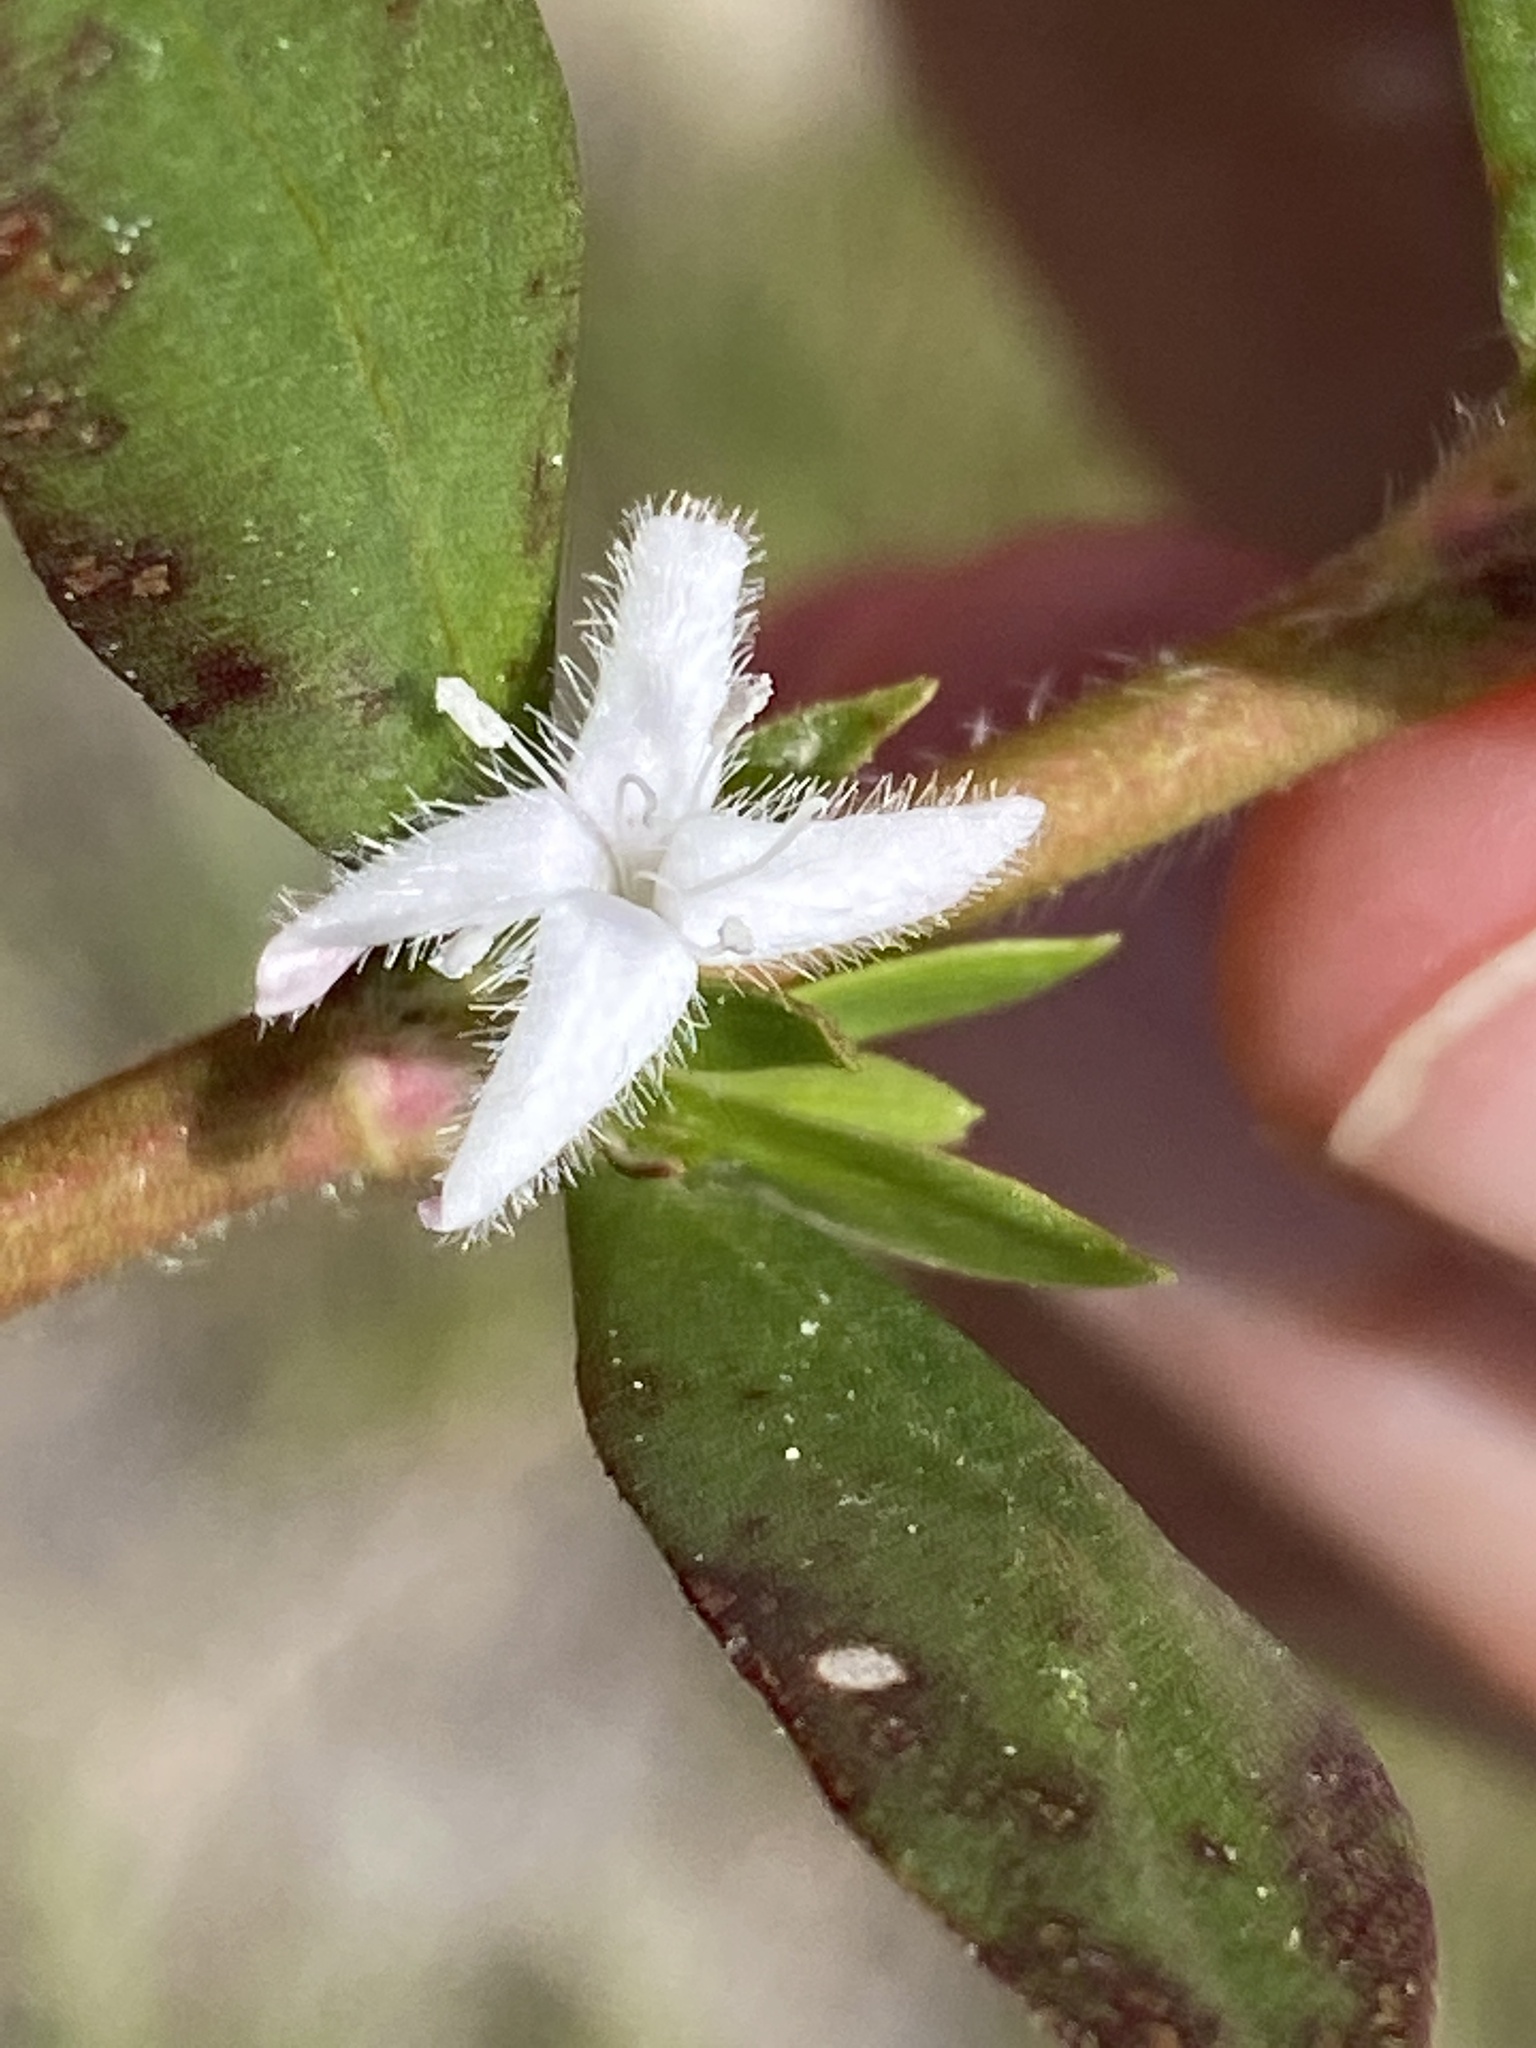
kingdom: Plantae
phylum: Tracheophyta
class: Magnoliopsida
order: Gentianales
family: Rubiaceae
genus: Diodia
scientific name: Diodia virginiana
